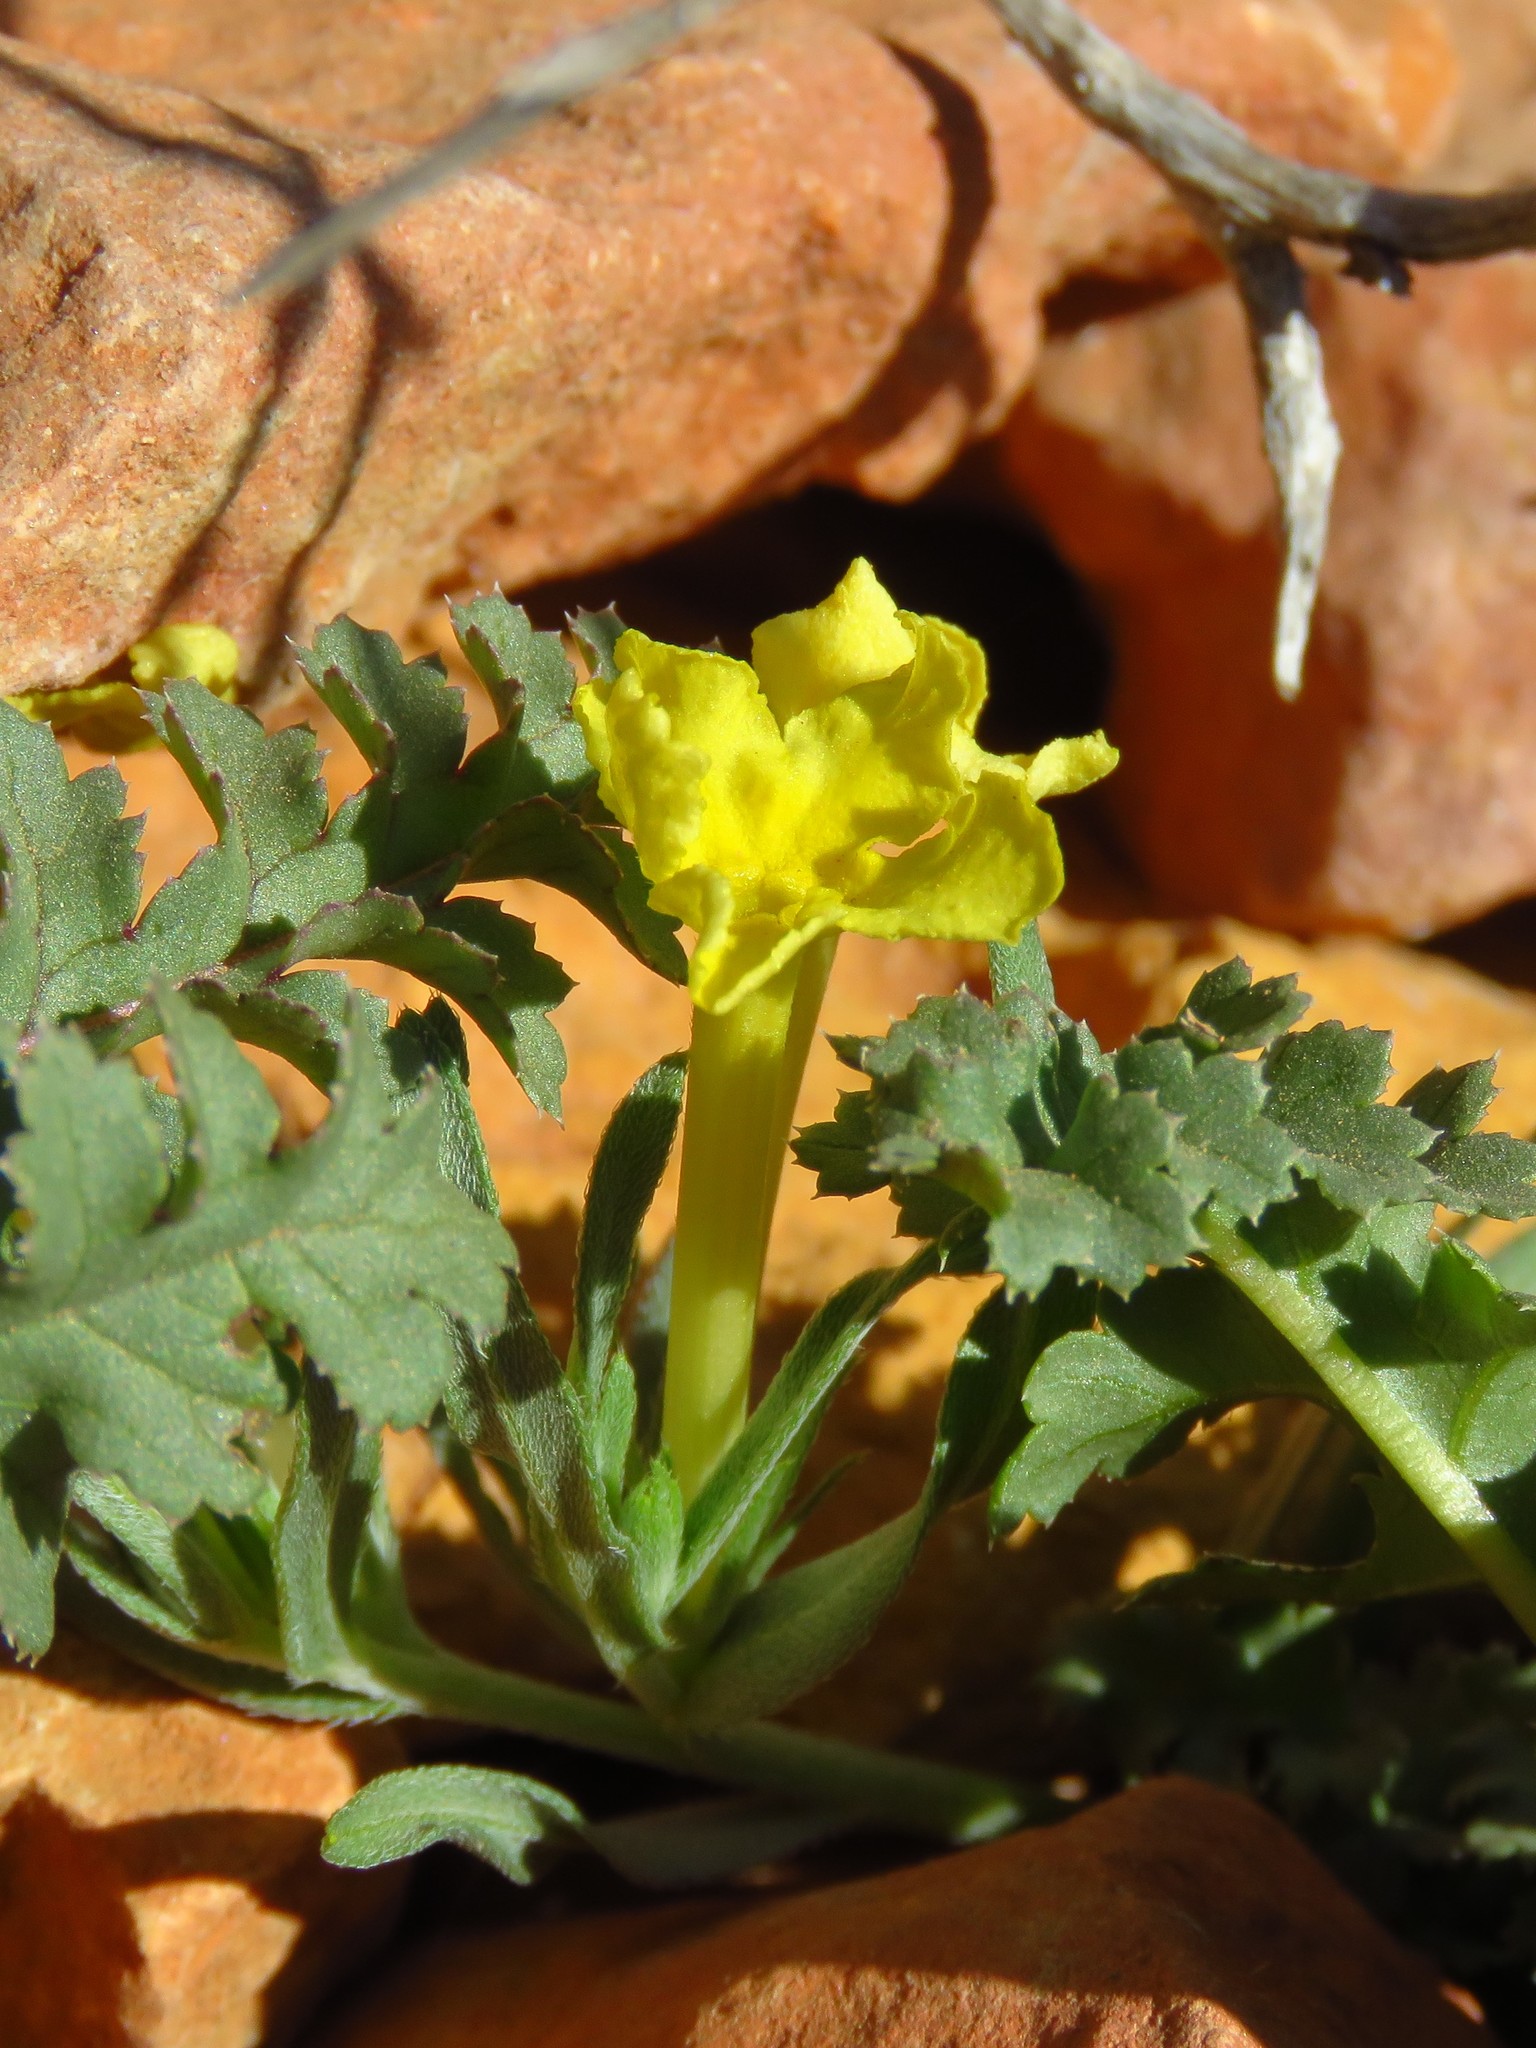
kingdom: Plantae
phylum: Tracheophyta
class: Magnoliopsida
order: Boraginales
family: Boraginaceae
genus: Lithospermum
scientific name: Lithospermum incisum
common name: Fringed gromwell
